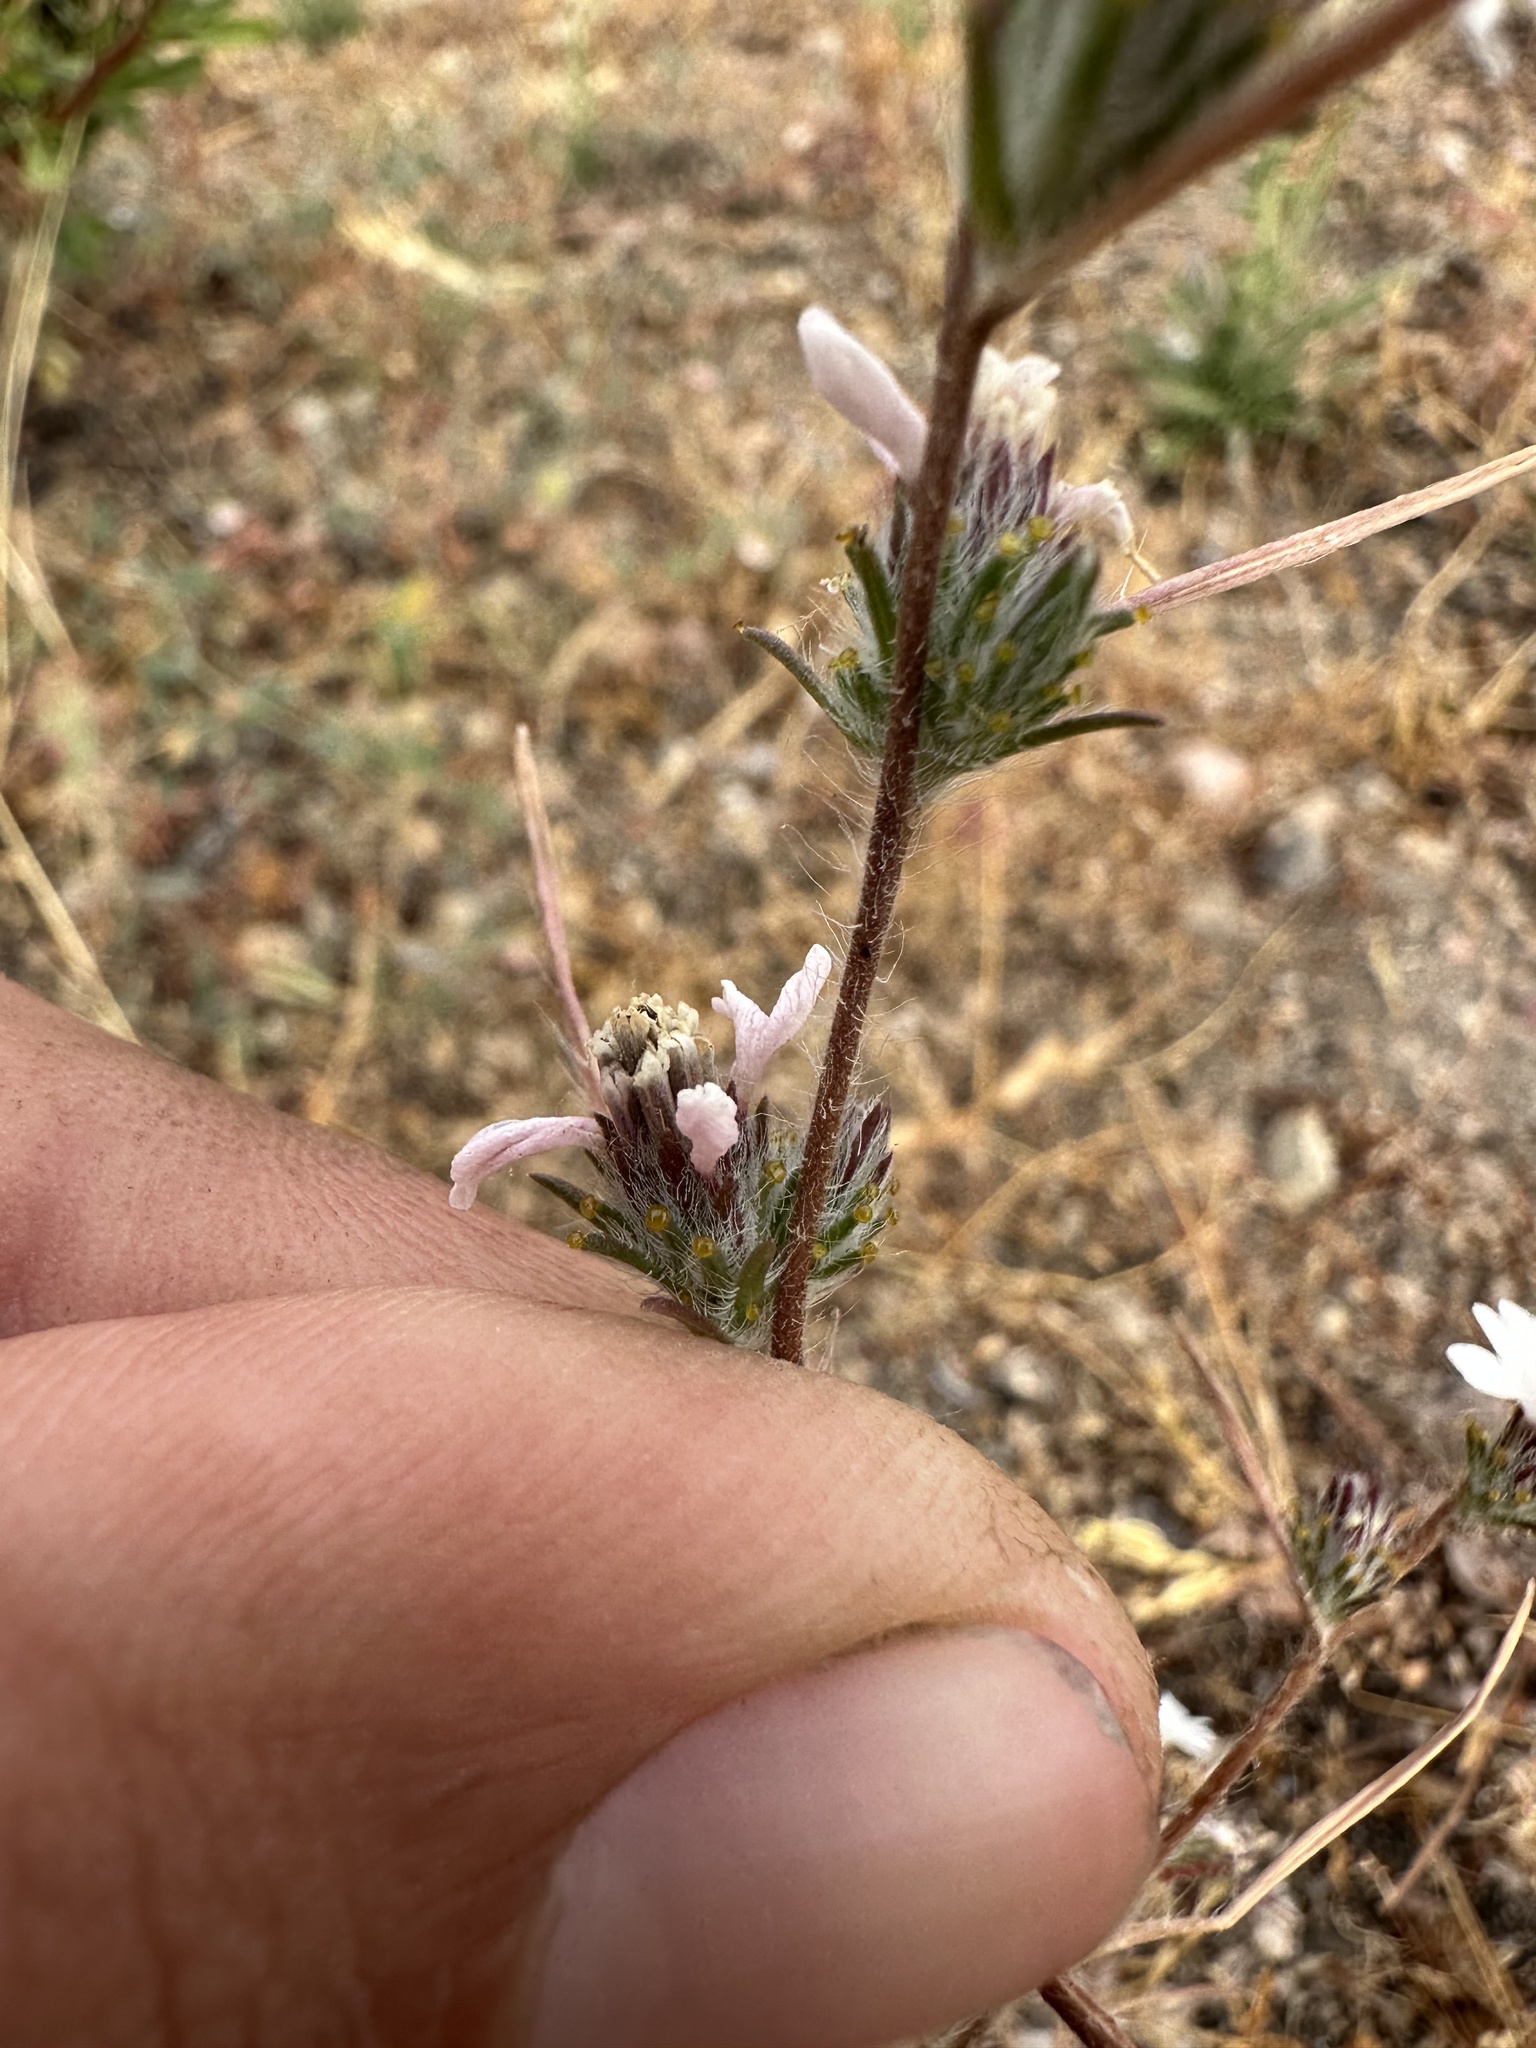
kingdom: Plantae
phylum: Tracheophyta
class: Magnoliopsida
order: Asterales
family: Asteraceae
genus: Calycadenia
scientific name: Calycadenia villosa
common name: Dwarf calycadenia
